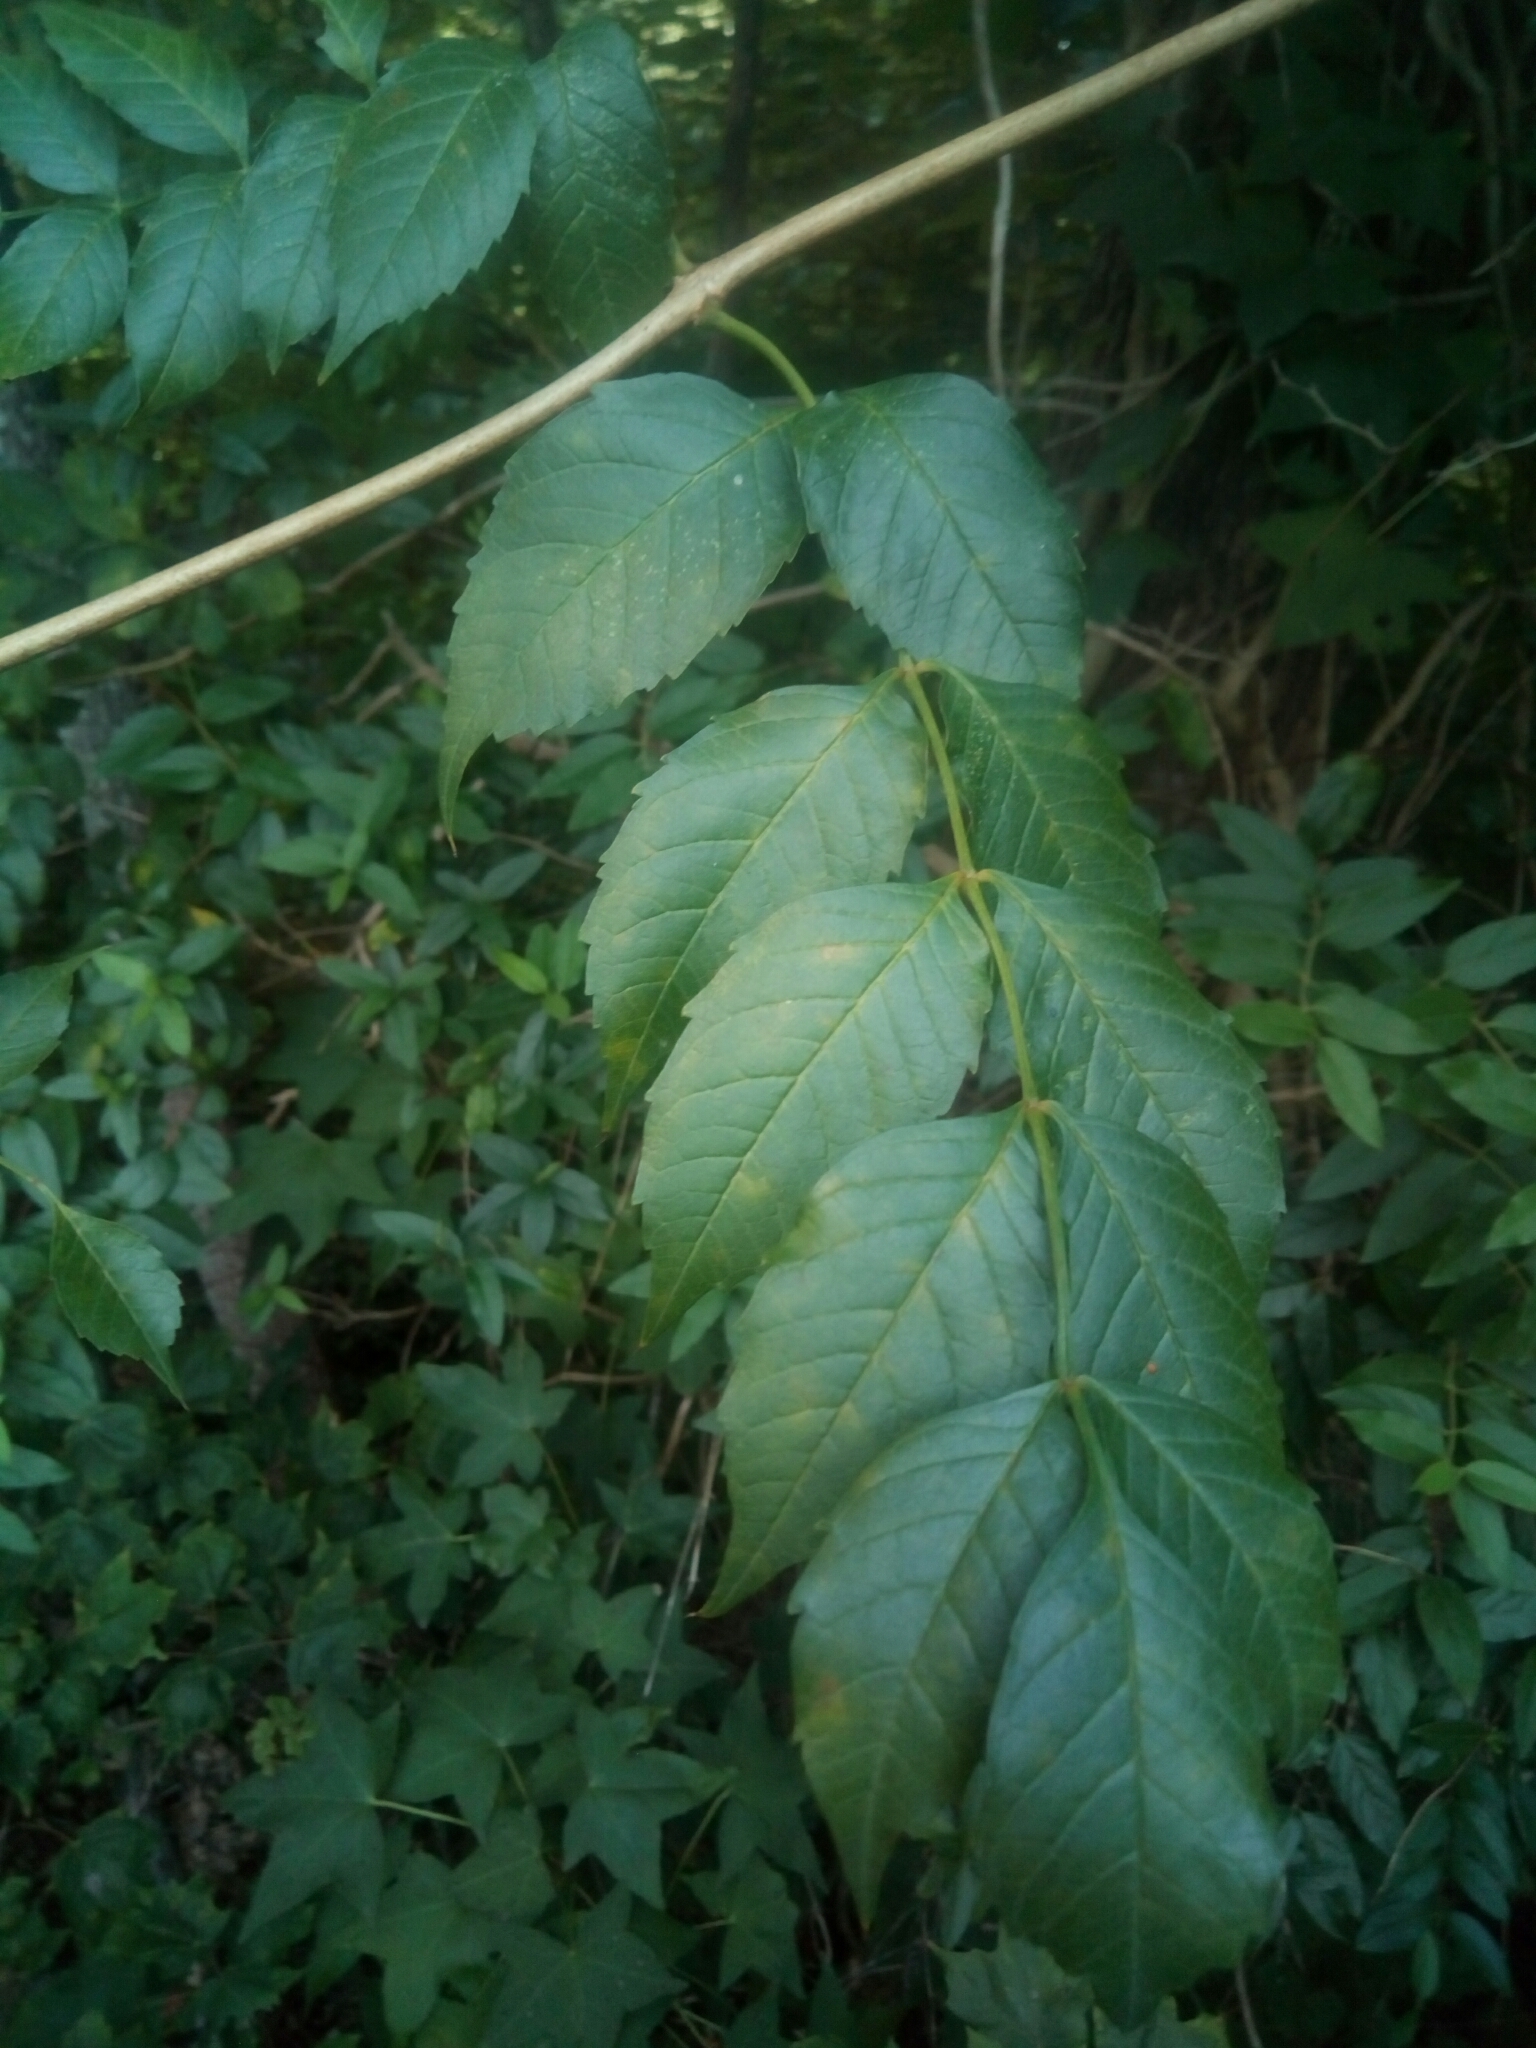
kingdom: Plantae
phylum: Tracheophyta
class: Magnoliopsida
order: Lamiales
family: Bignoniaceae
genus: Campsis
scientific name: Campsis radicans
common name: Trumpet-creeper
